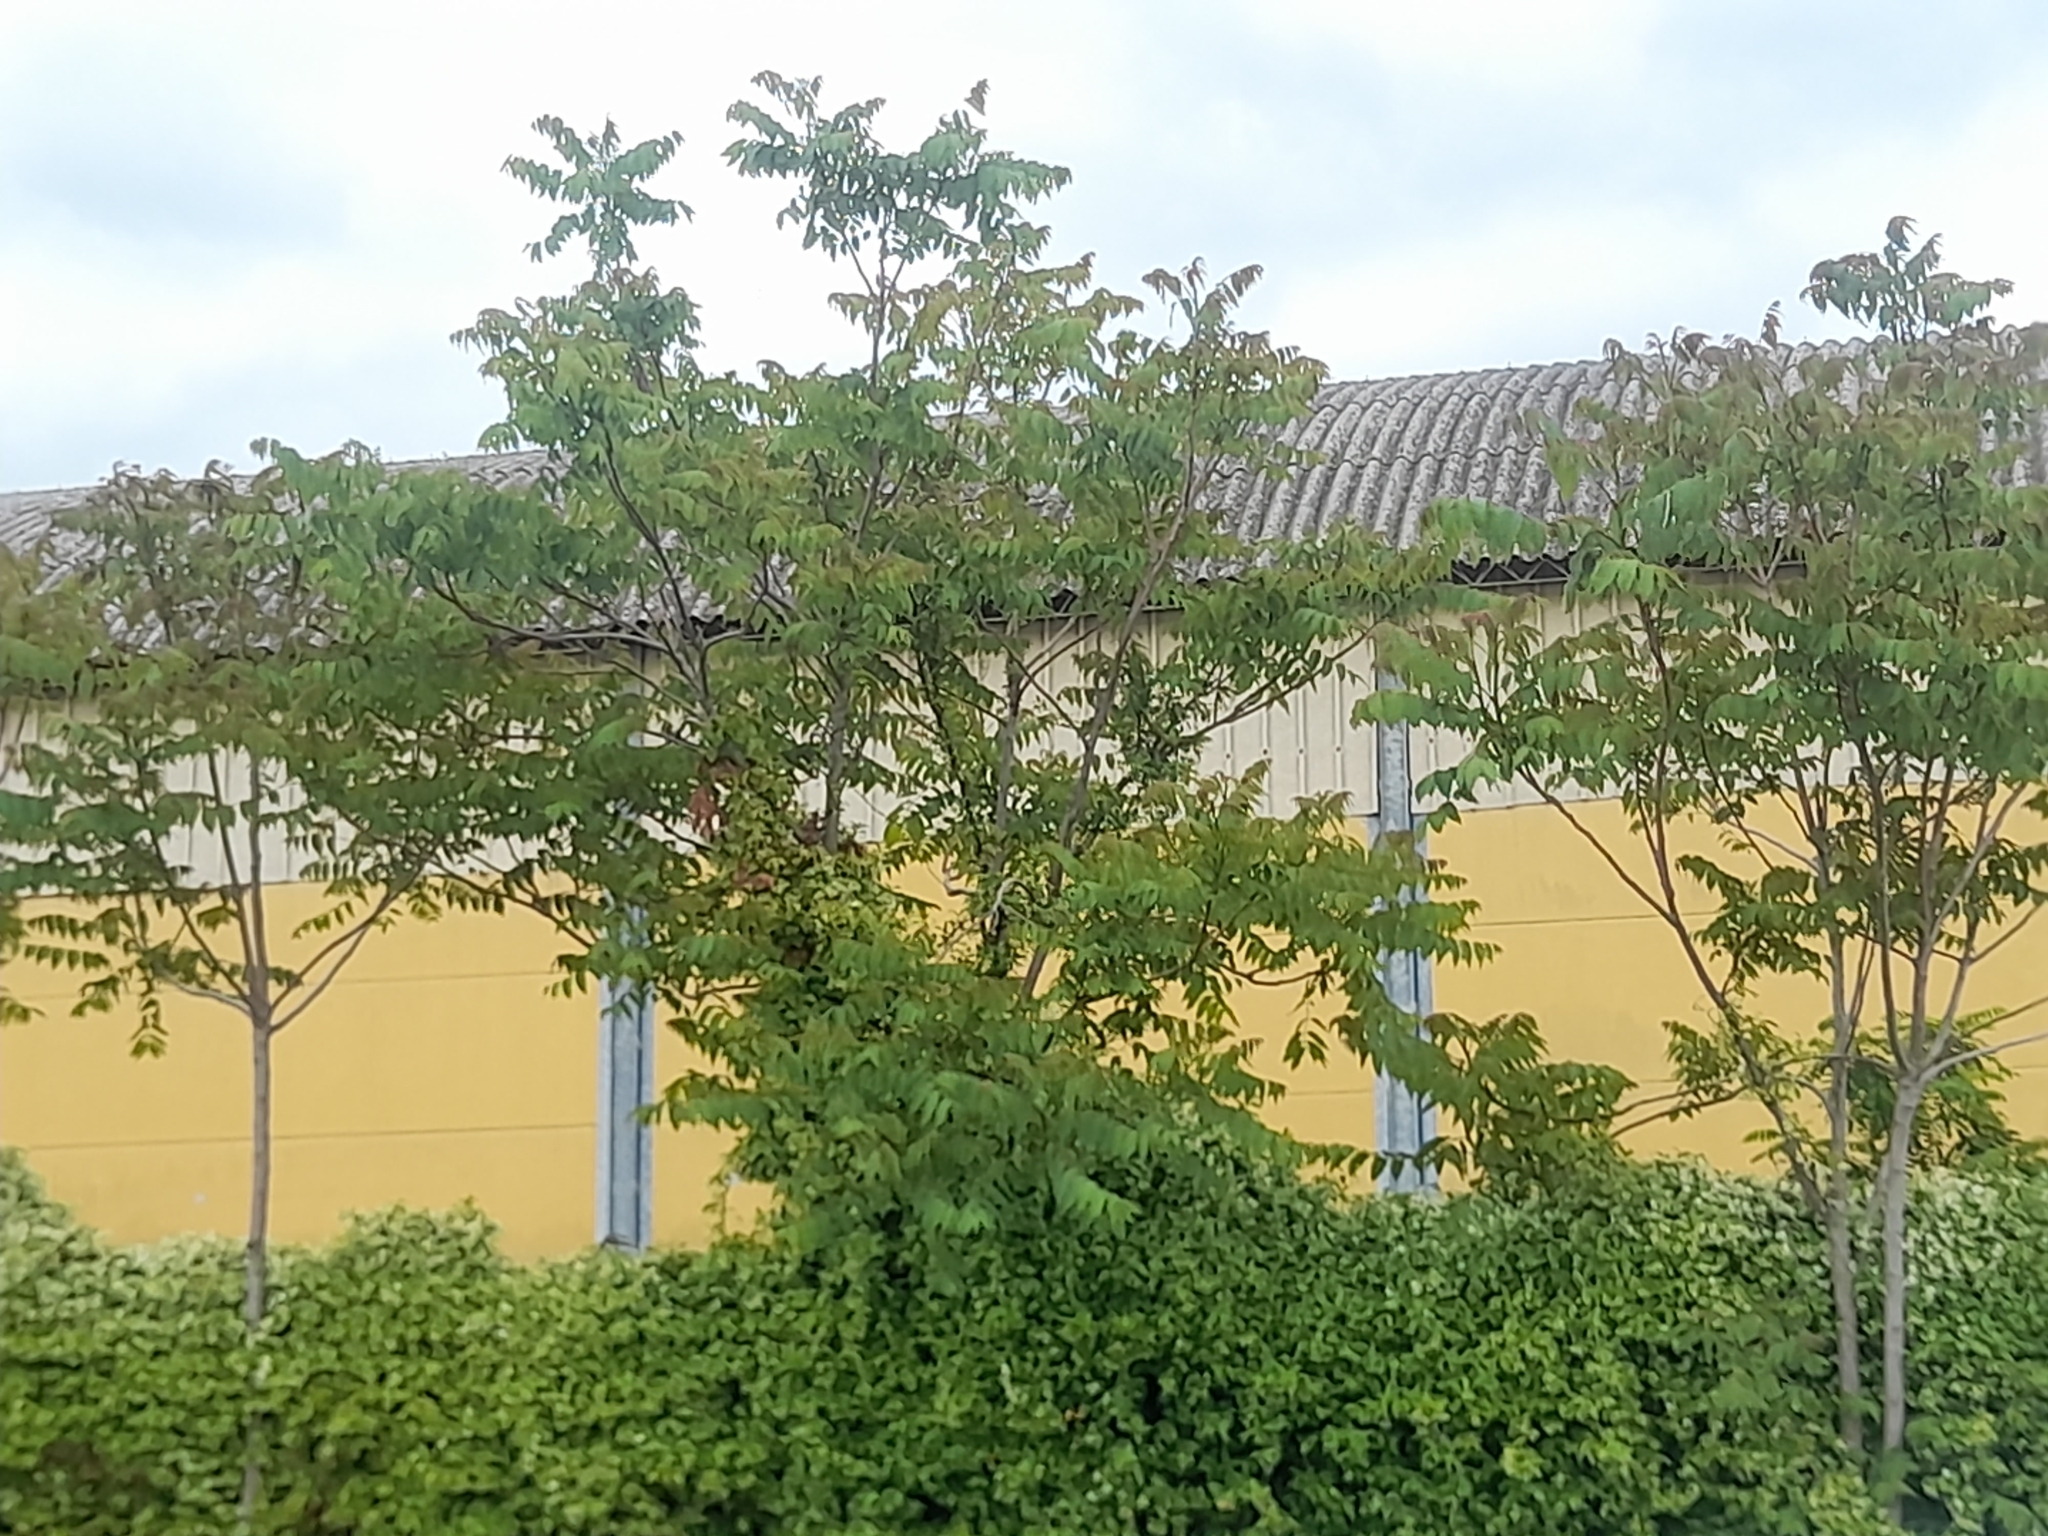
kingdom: Plantae
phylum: Tracheophyta
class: Magnoliopsida
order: Sapindales
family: Simaroubaceae
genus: Ailanthus
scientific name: Ailanthus altissima
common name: Tree-of-heaven
